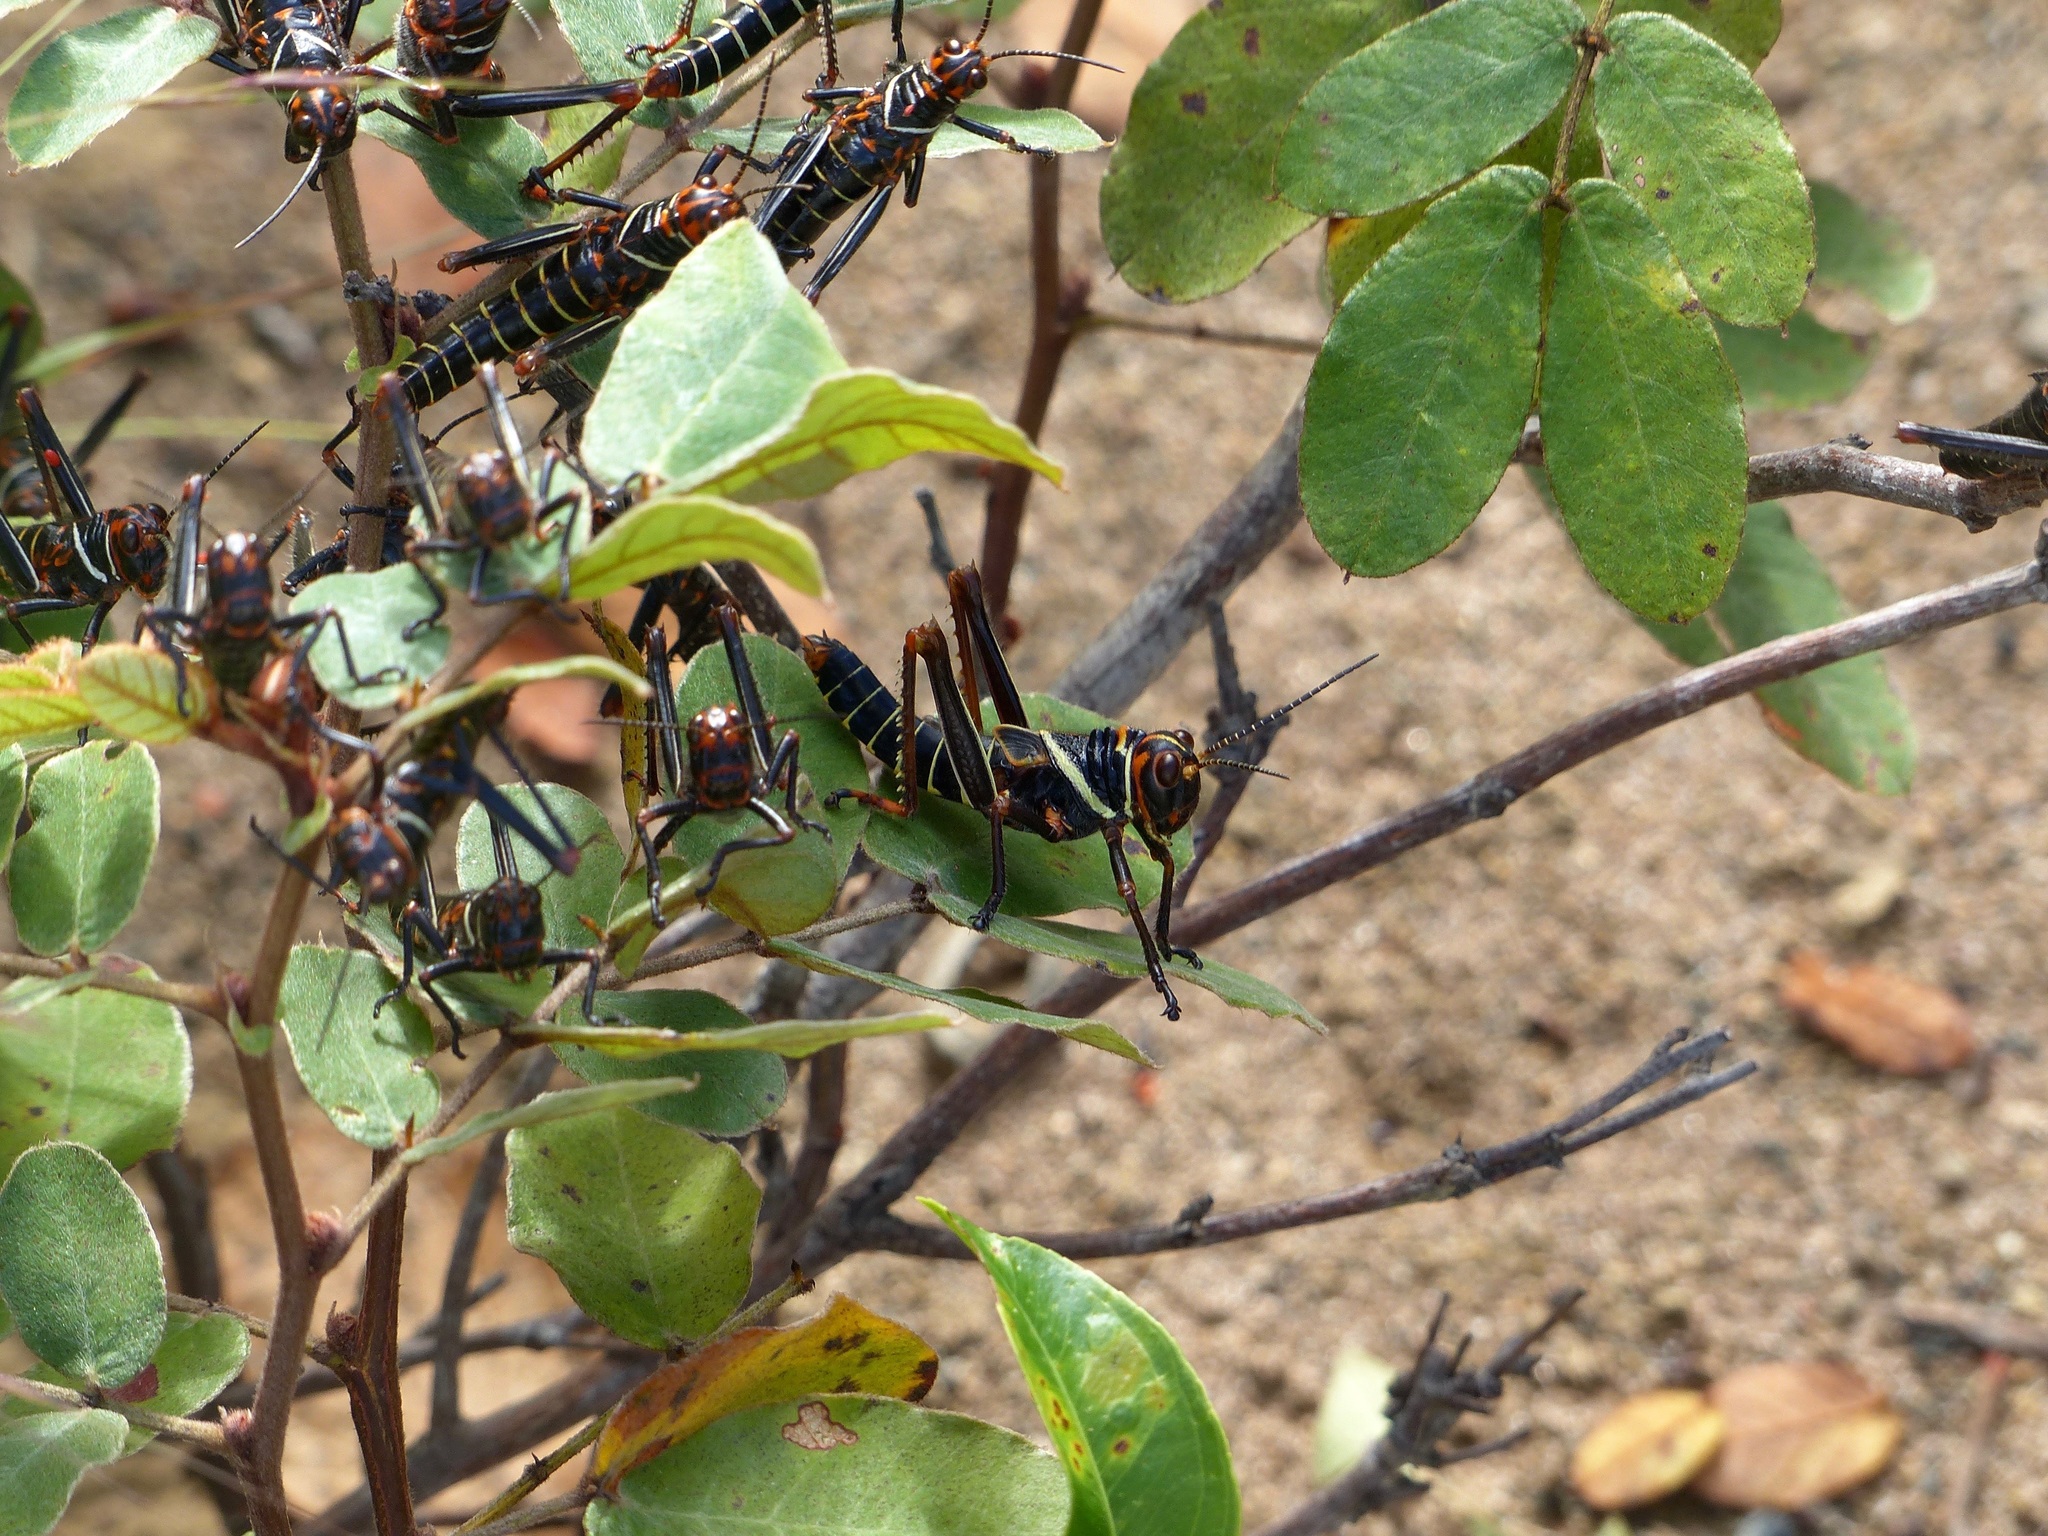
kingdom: Animalia
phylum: Arthropoda
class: Insecta
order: Orthoptera
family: Romaleidae
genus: Tropidacris
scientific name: Tropidacris collaris
